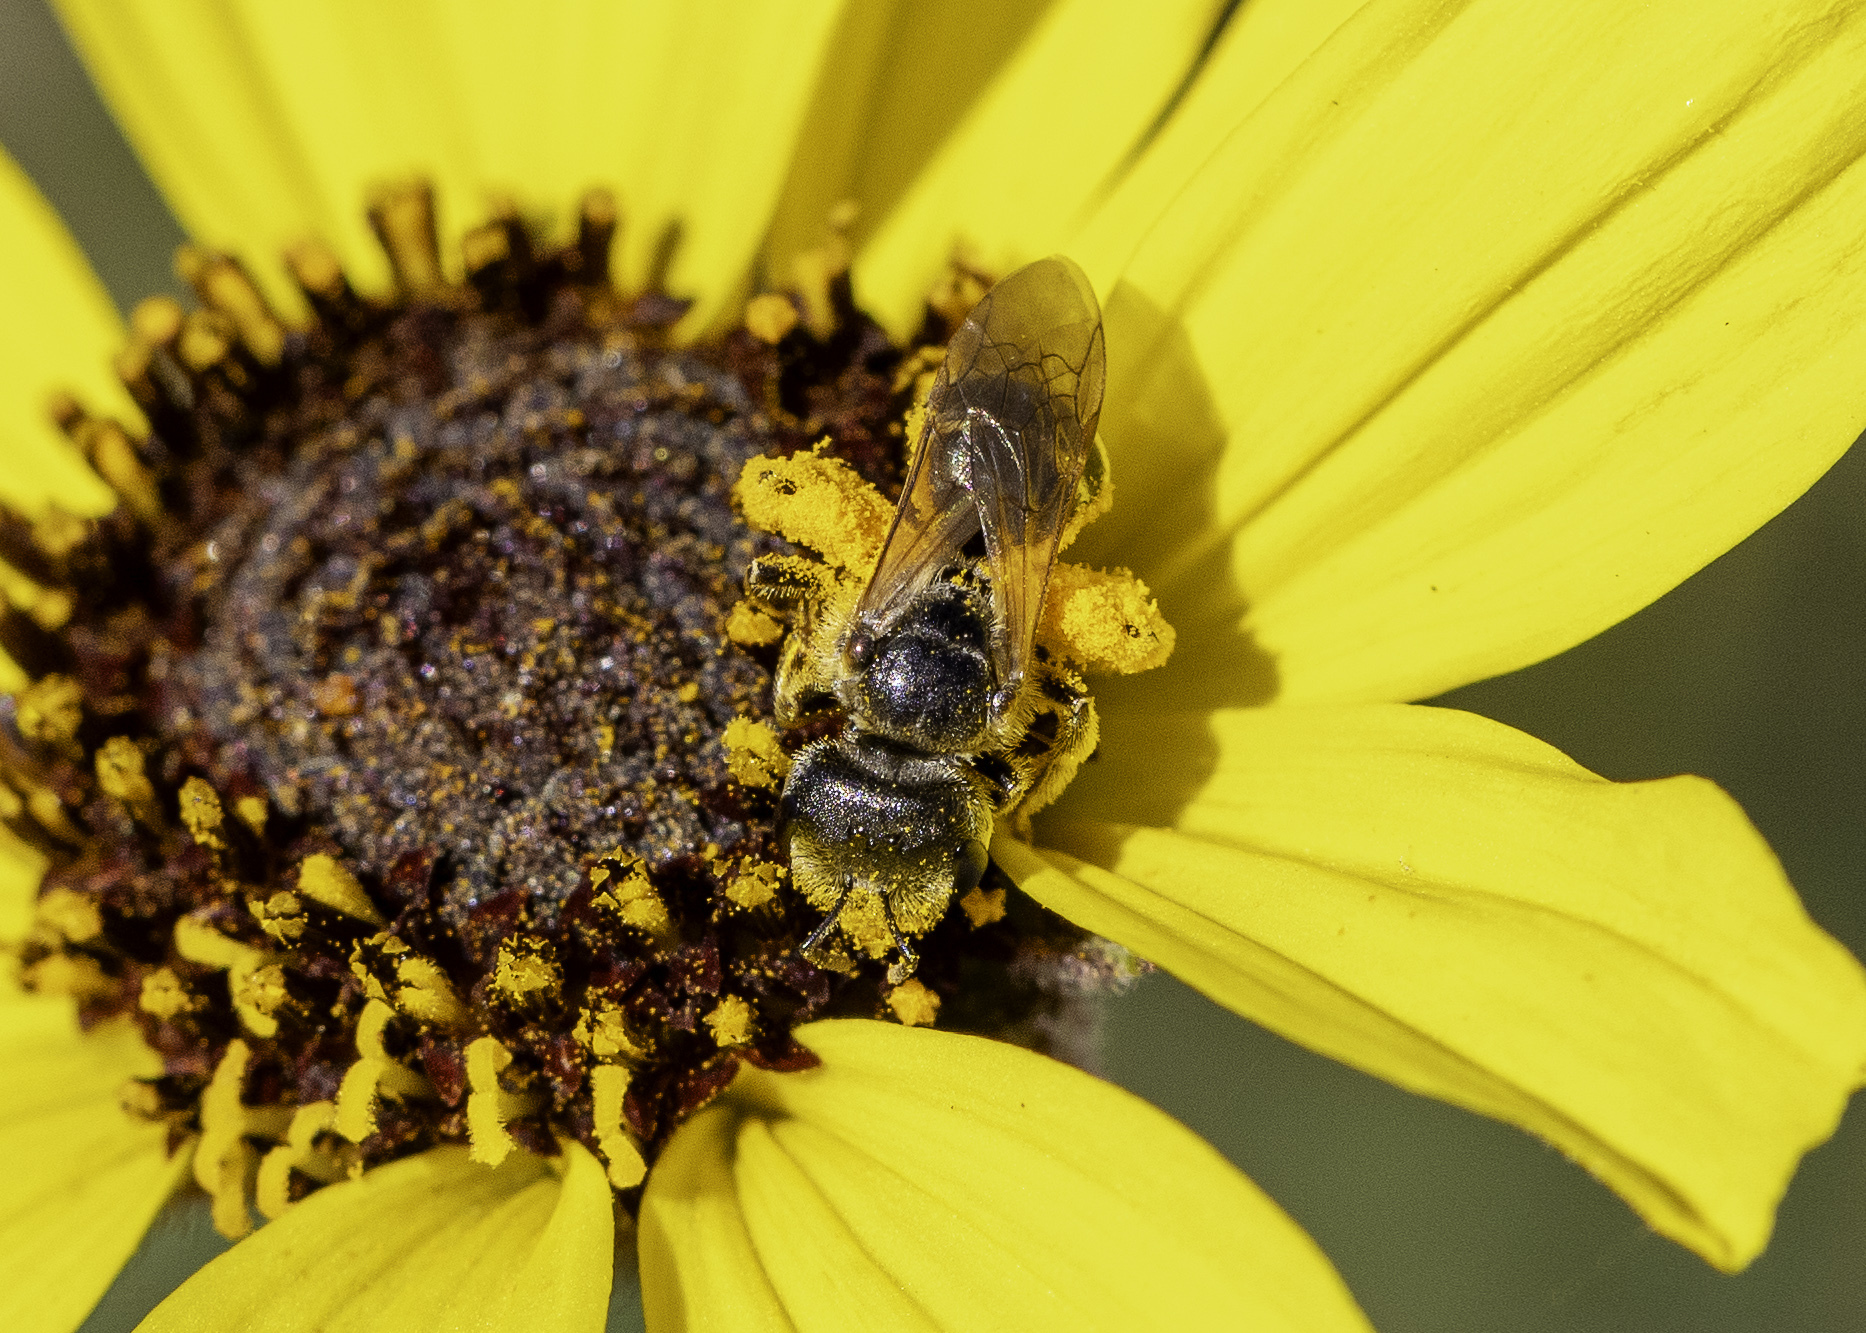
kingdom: Animalia
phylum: Arthropoda
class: Insecta
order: Hymenoptera
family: Halictidae
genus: Halictus
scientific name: Halictus ligatus
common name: Ligated furrow bee
